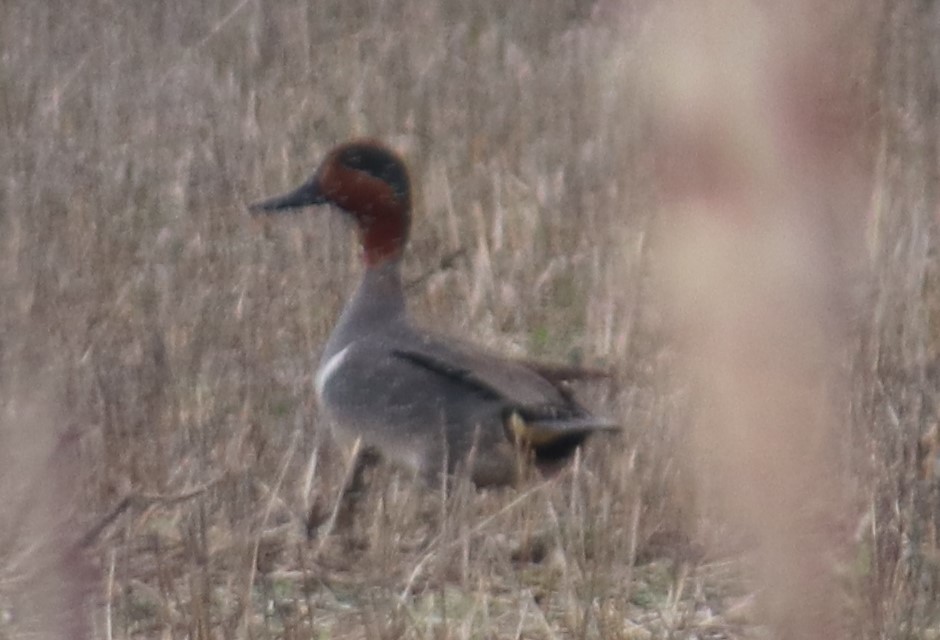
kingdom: Animalia
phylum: Chordata
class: Aves
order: Anseriformes
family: Anatidae
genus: Anas
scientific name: Anas crecca
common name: Eurasian teal
